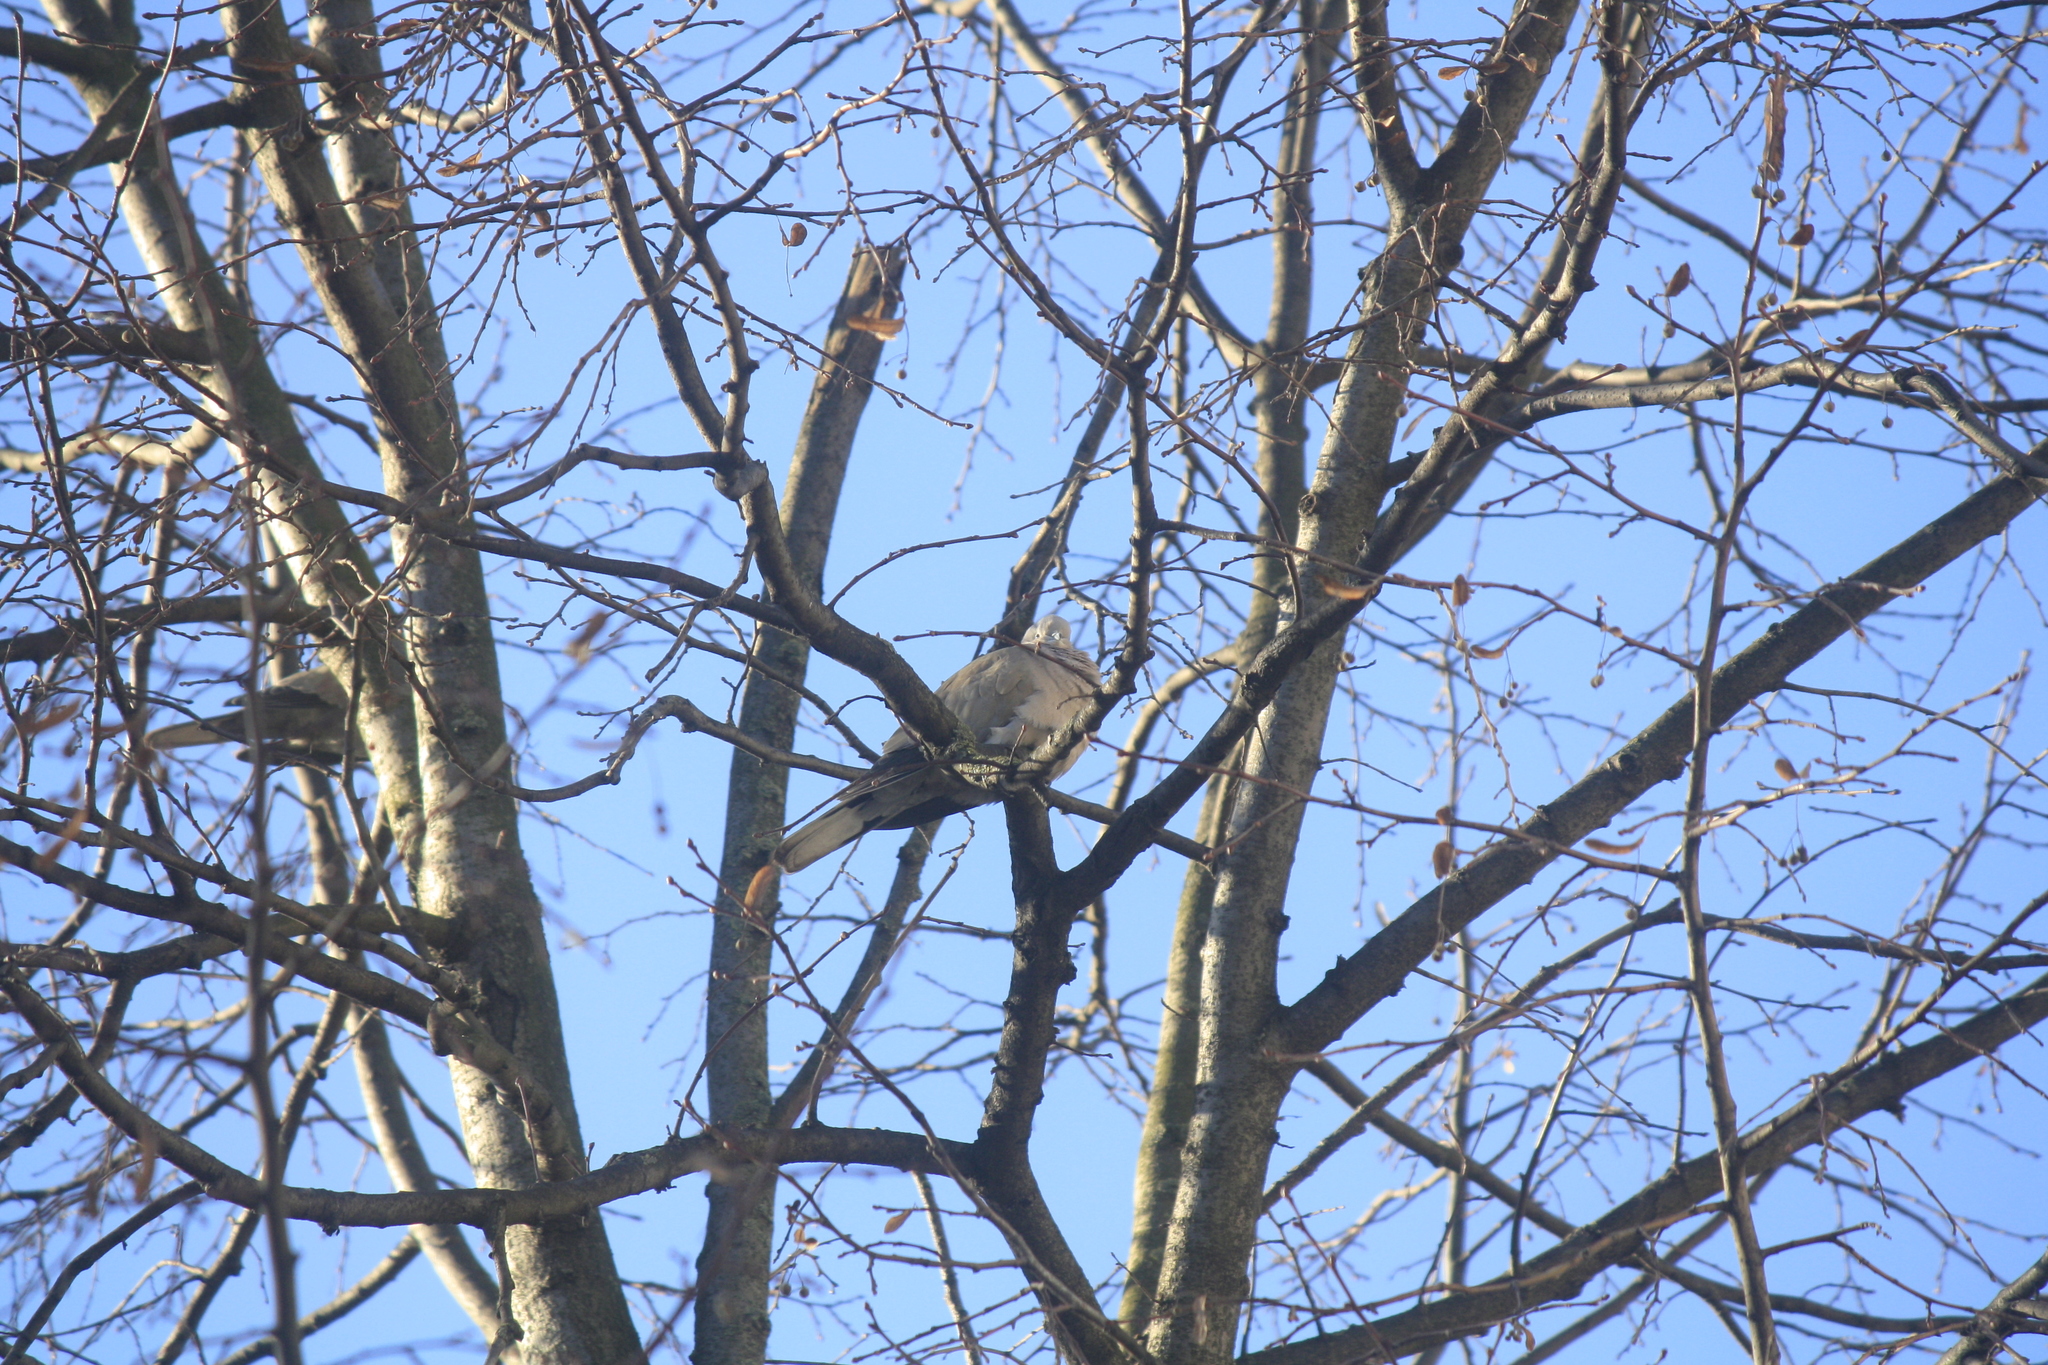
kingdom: Animalia
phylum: Chordata
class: Aves
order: Columbiformes
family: Columbidae
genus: Streptopelia
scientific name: Streptopelia decaocto
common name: Eurasian collared dove
